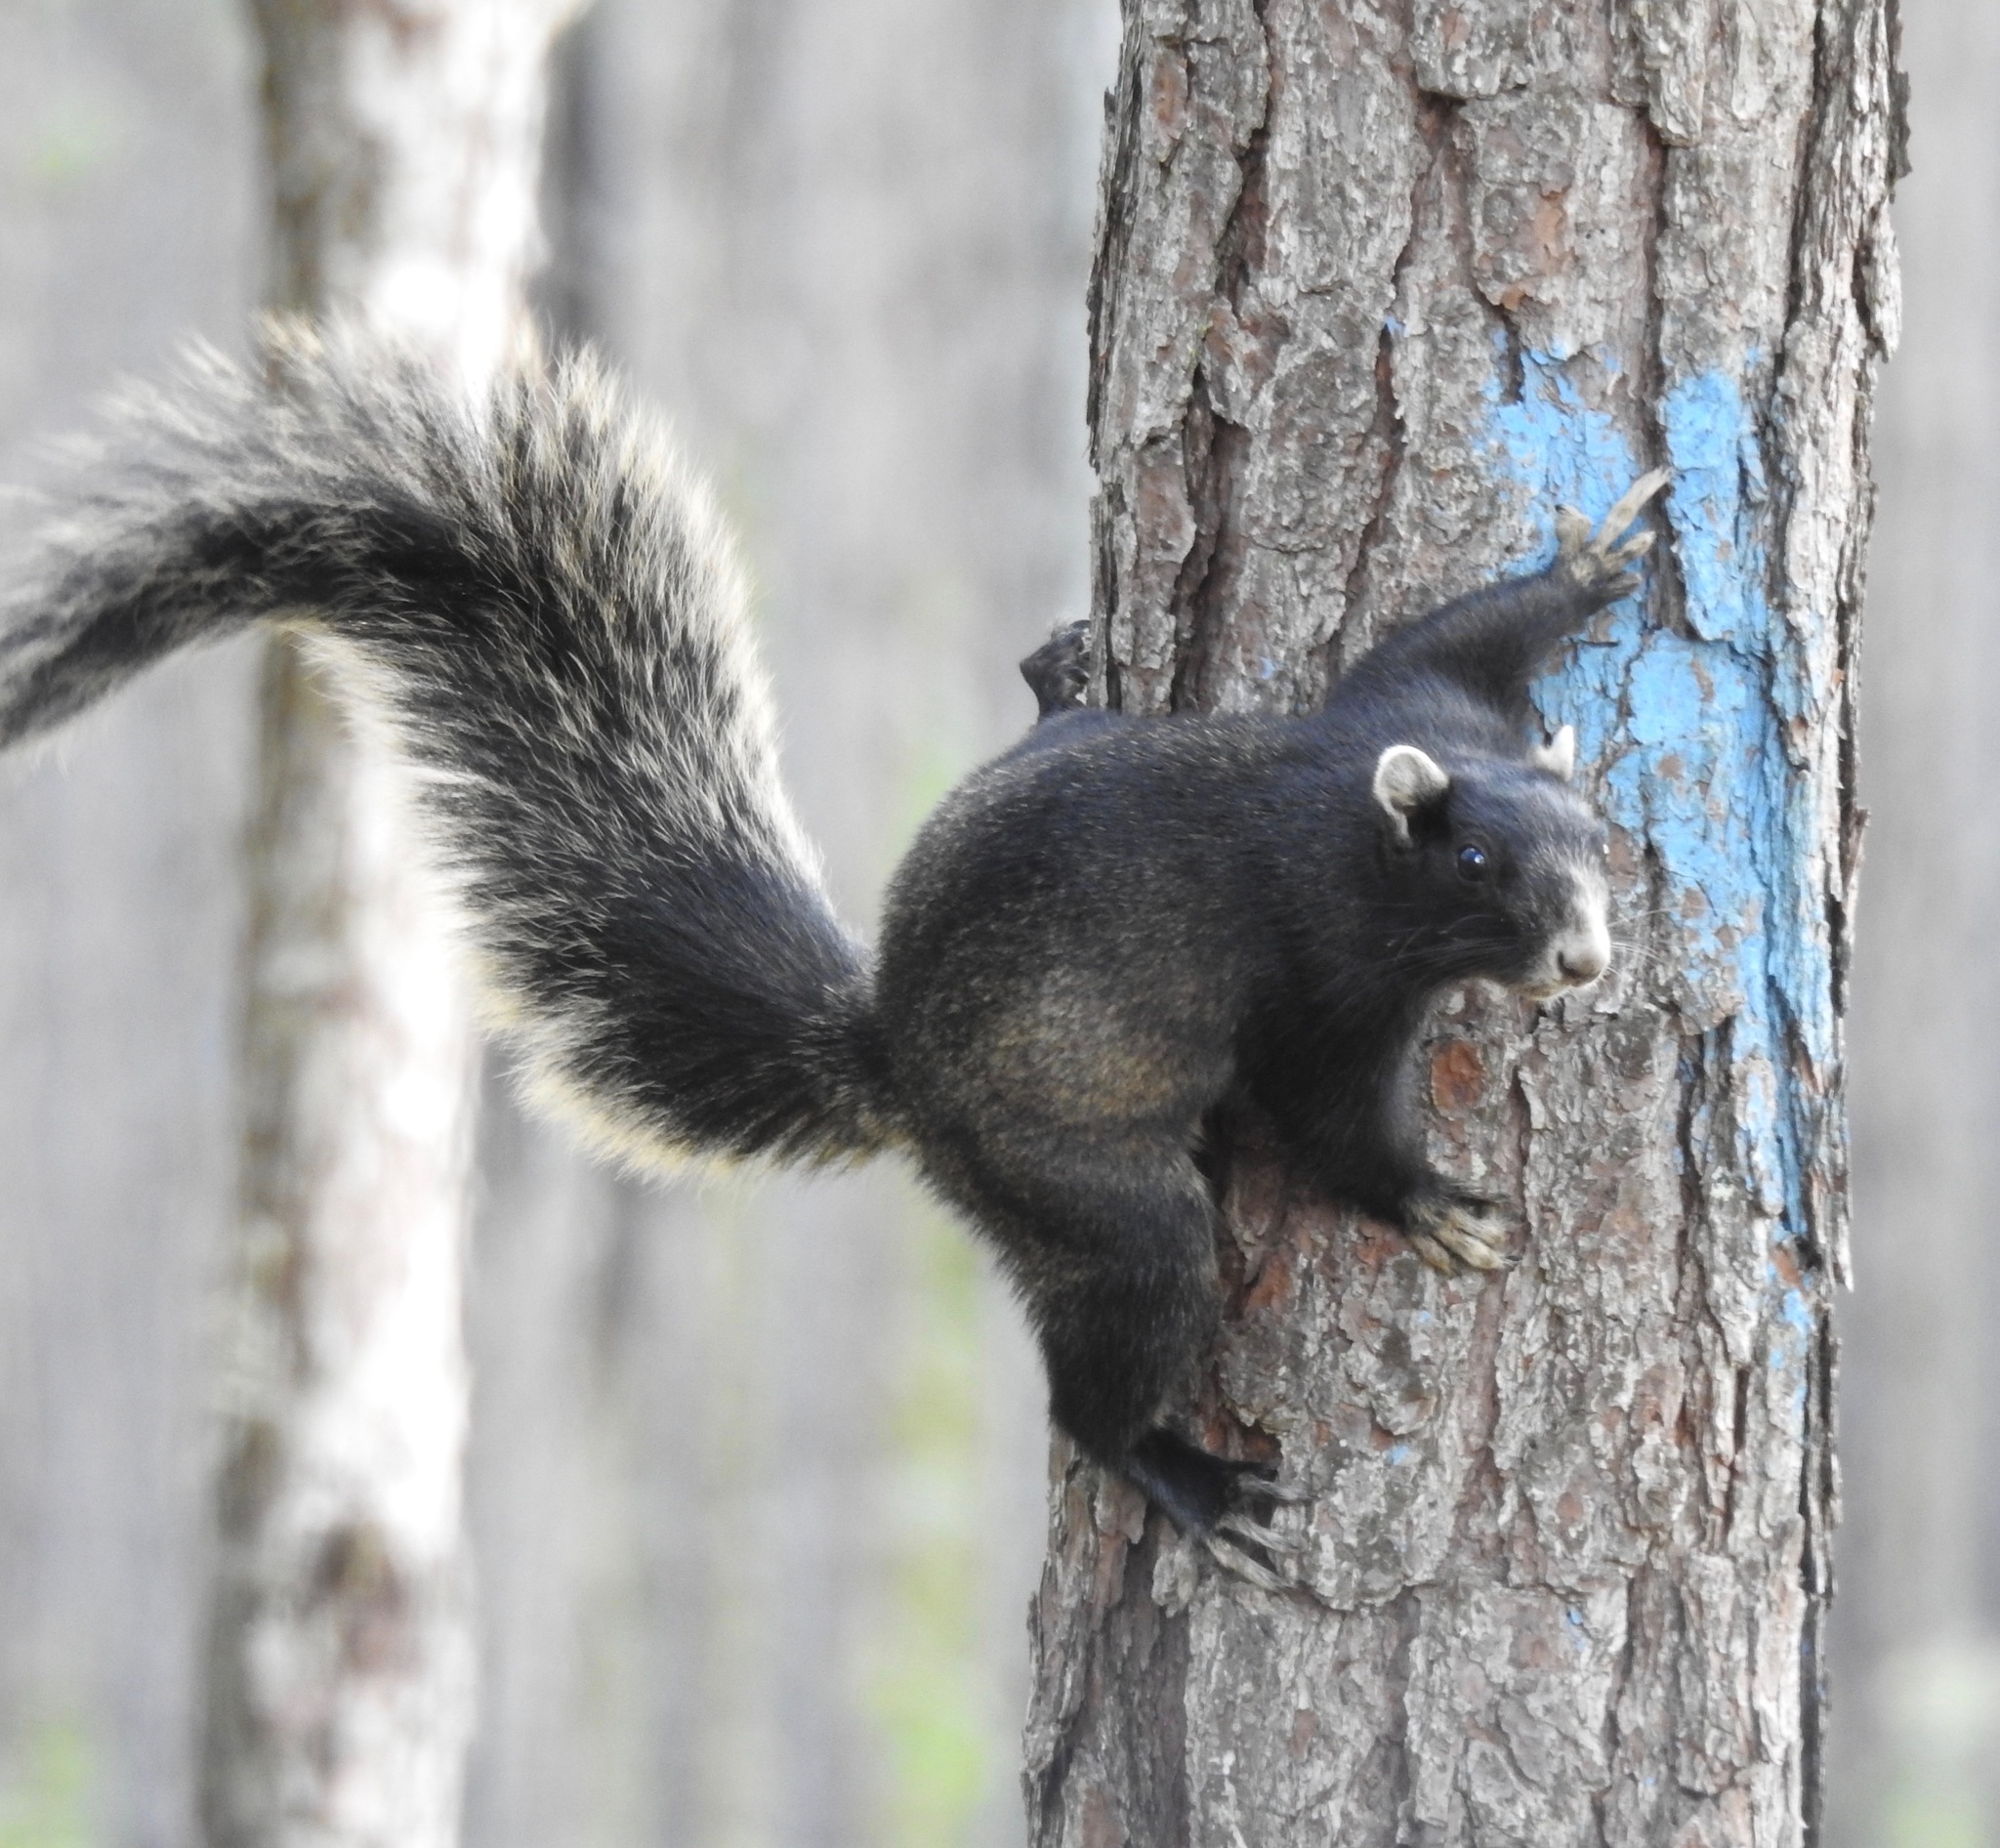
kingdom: Animalia
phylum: Chordata
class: Mammalia
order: Rodentia
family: Sciuridae
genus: Sciurus
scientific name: Sciurus niger
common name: Fox squirrel
